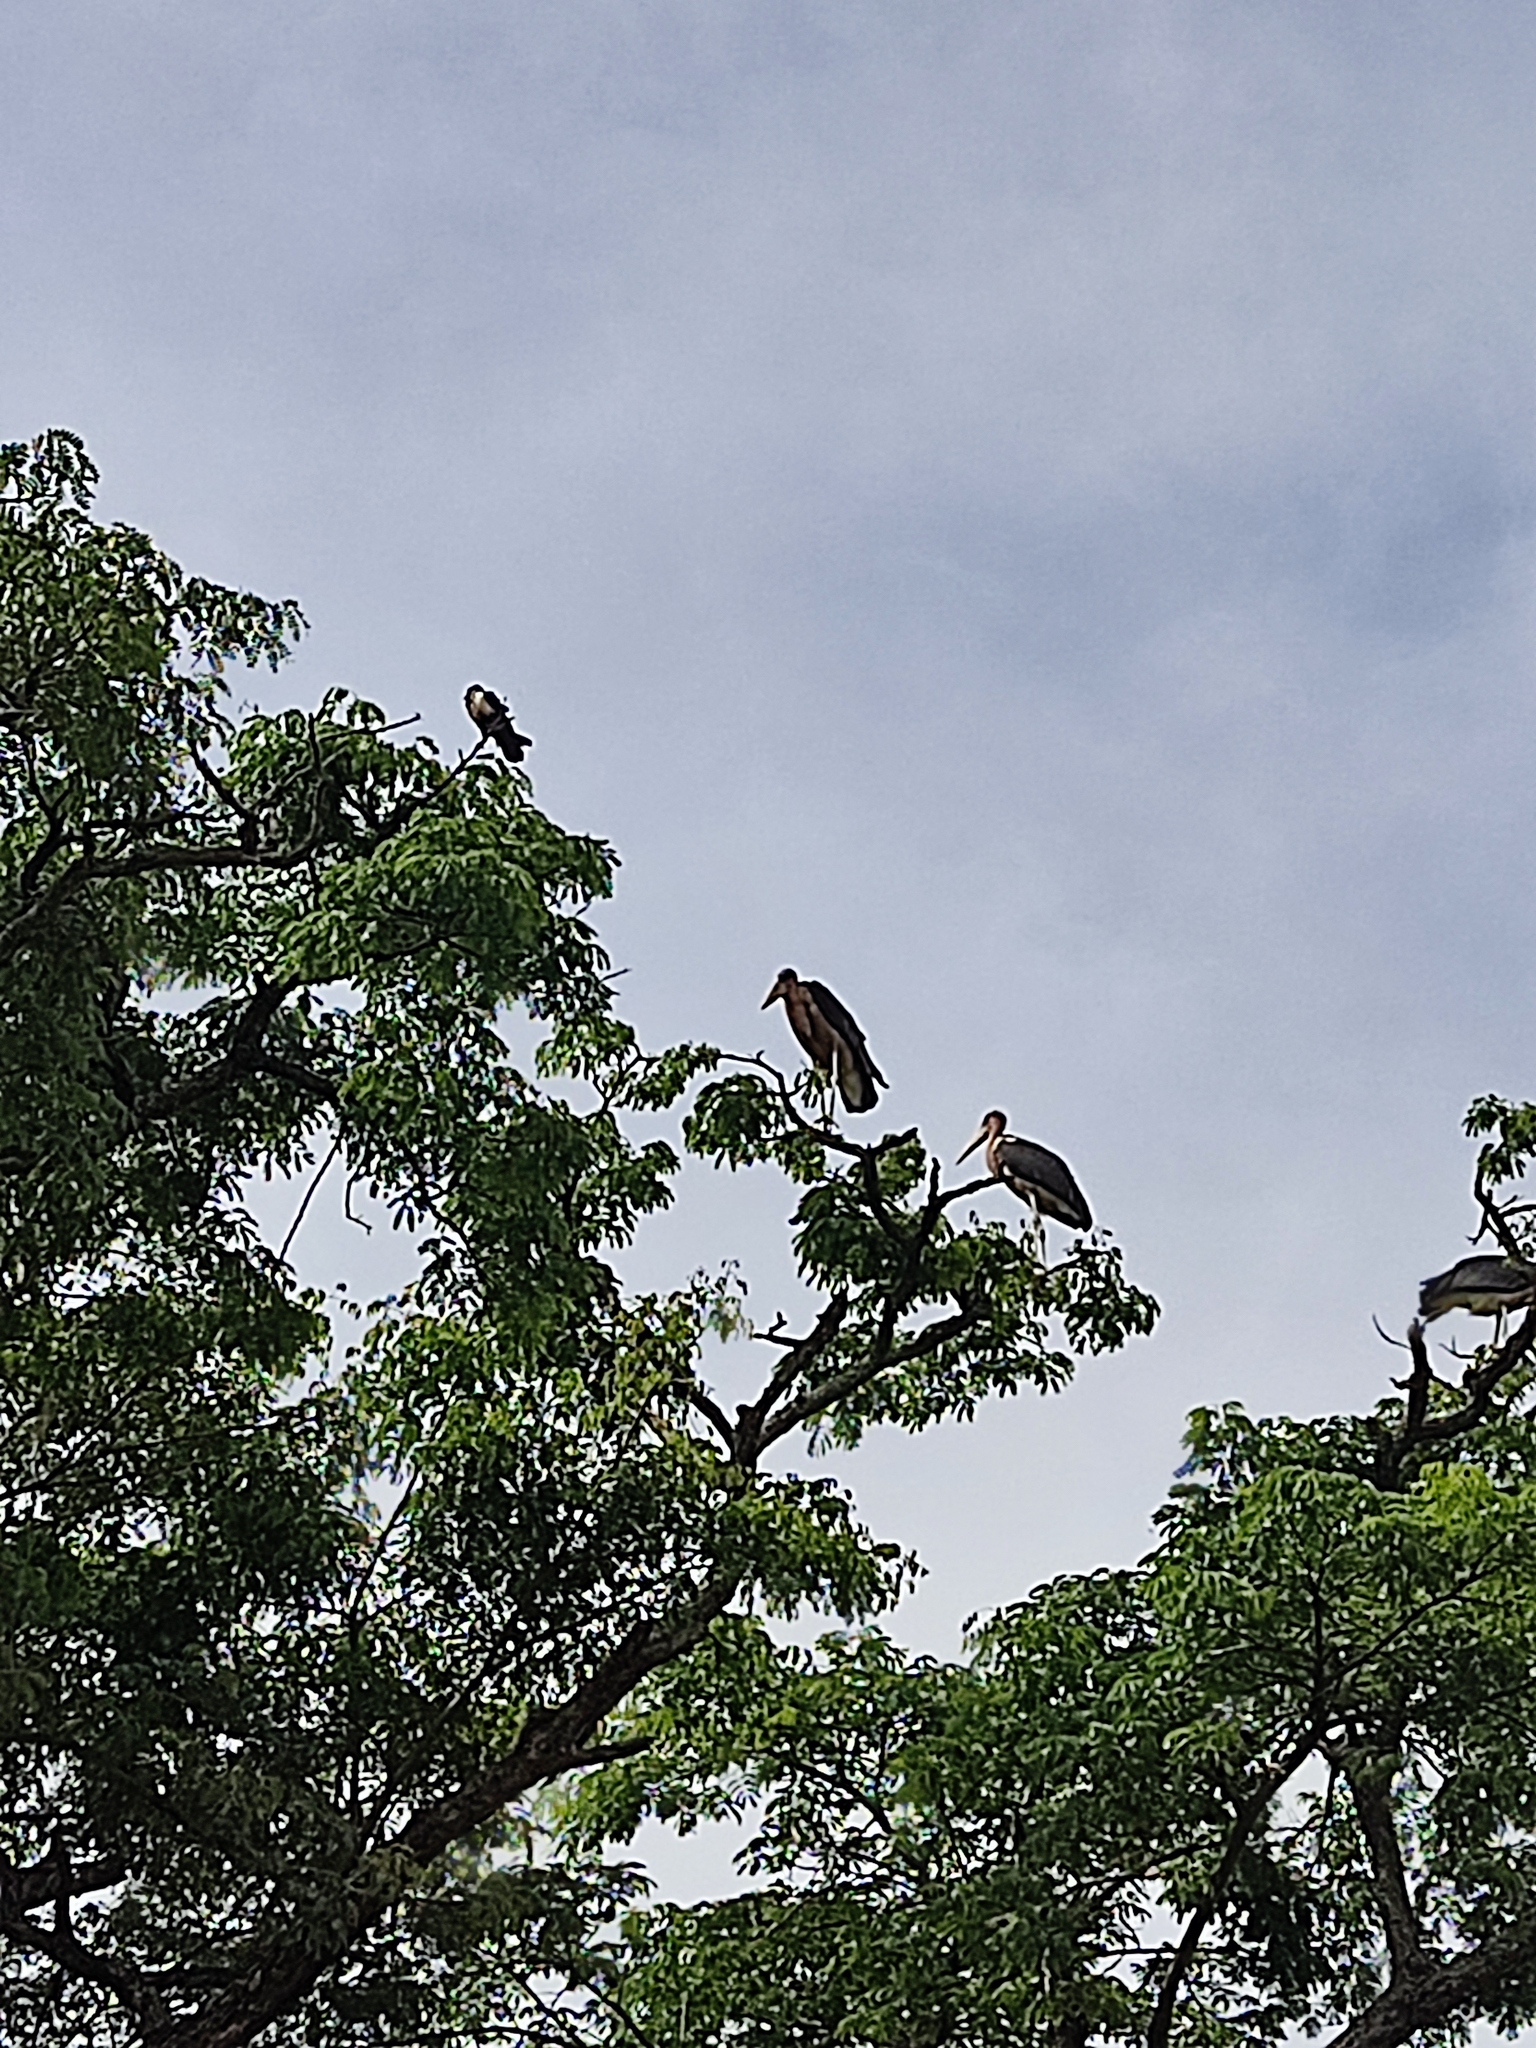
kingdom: Animalia
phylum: Chordata
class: Aves
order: Ciconiiformes
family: Ciconiidae
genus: Leptoptilos
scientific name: Leptoptilos crumenifer
